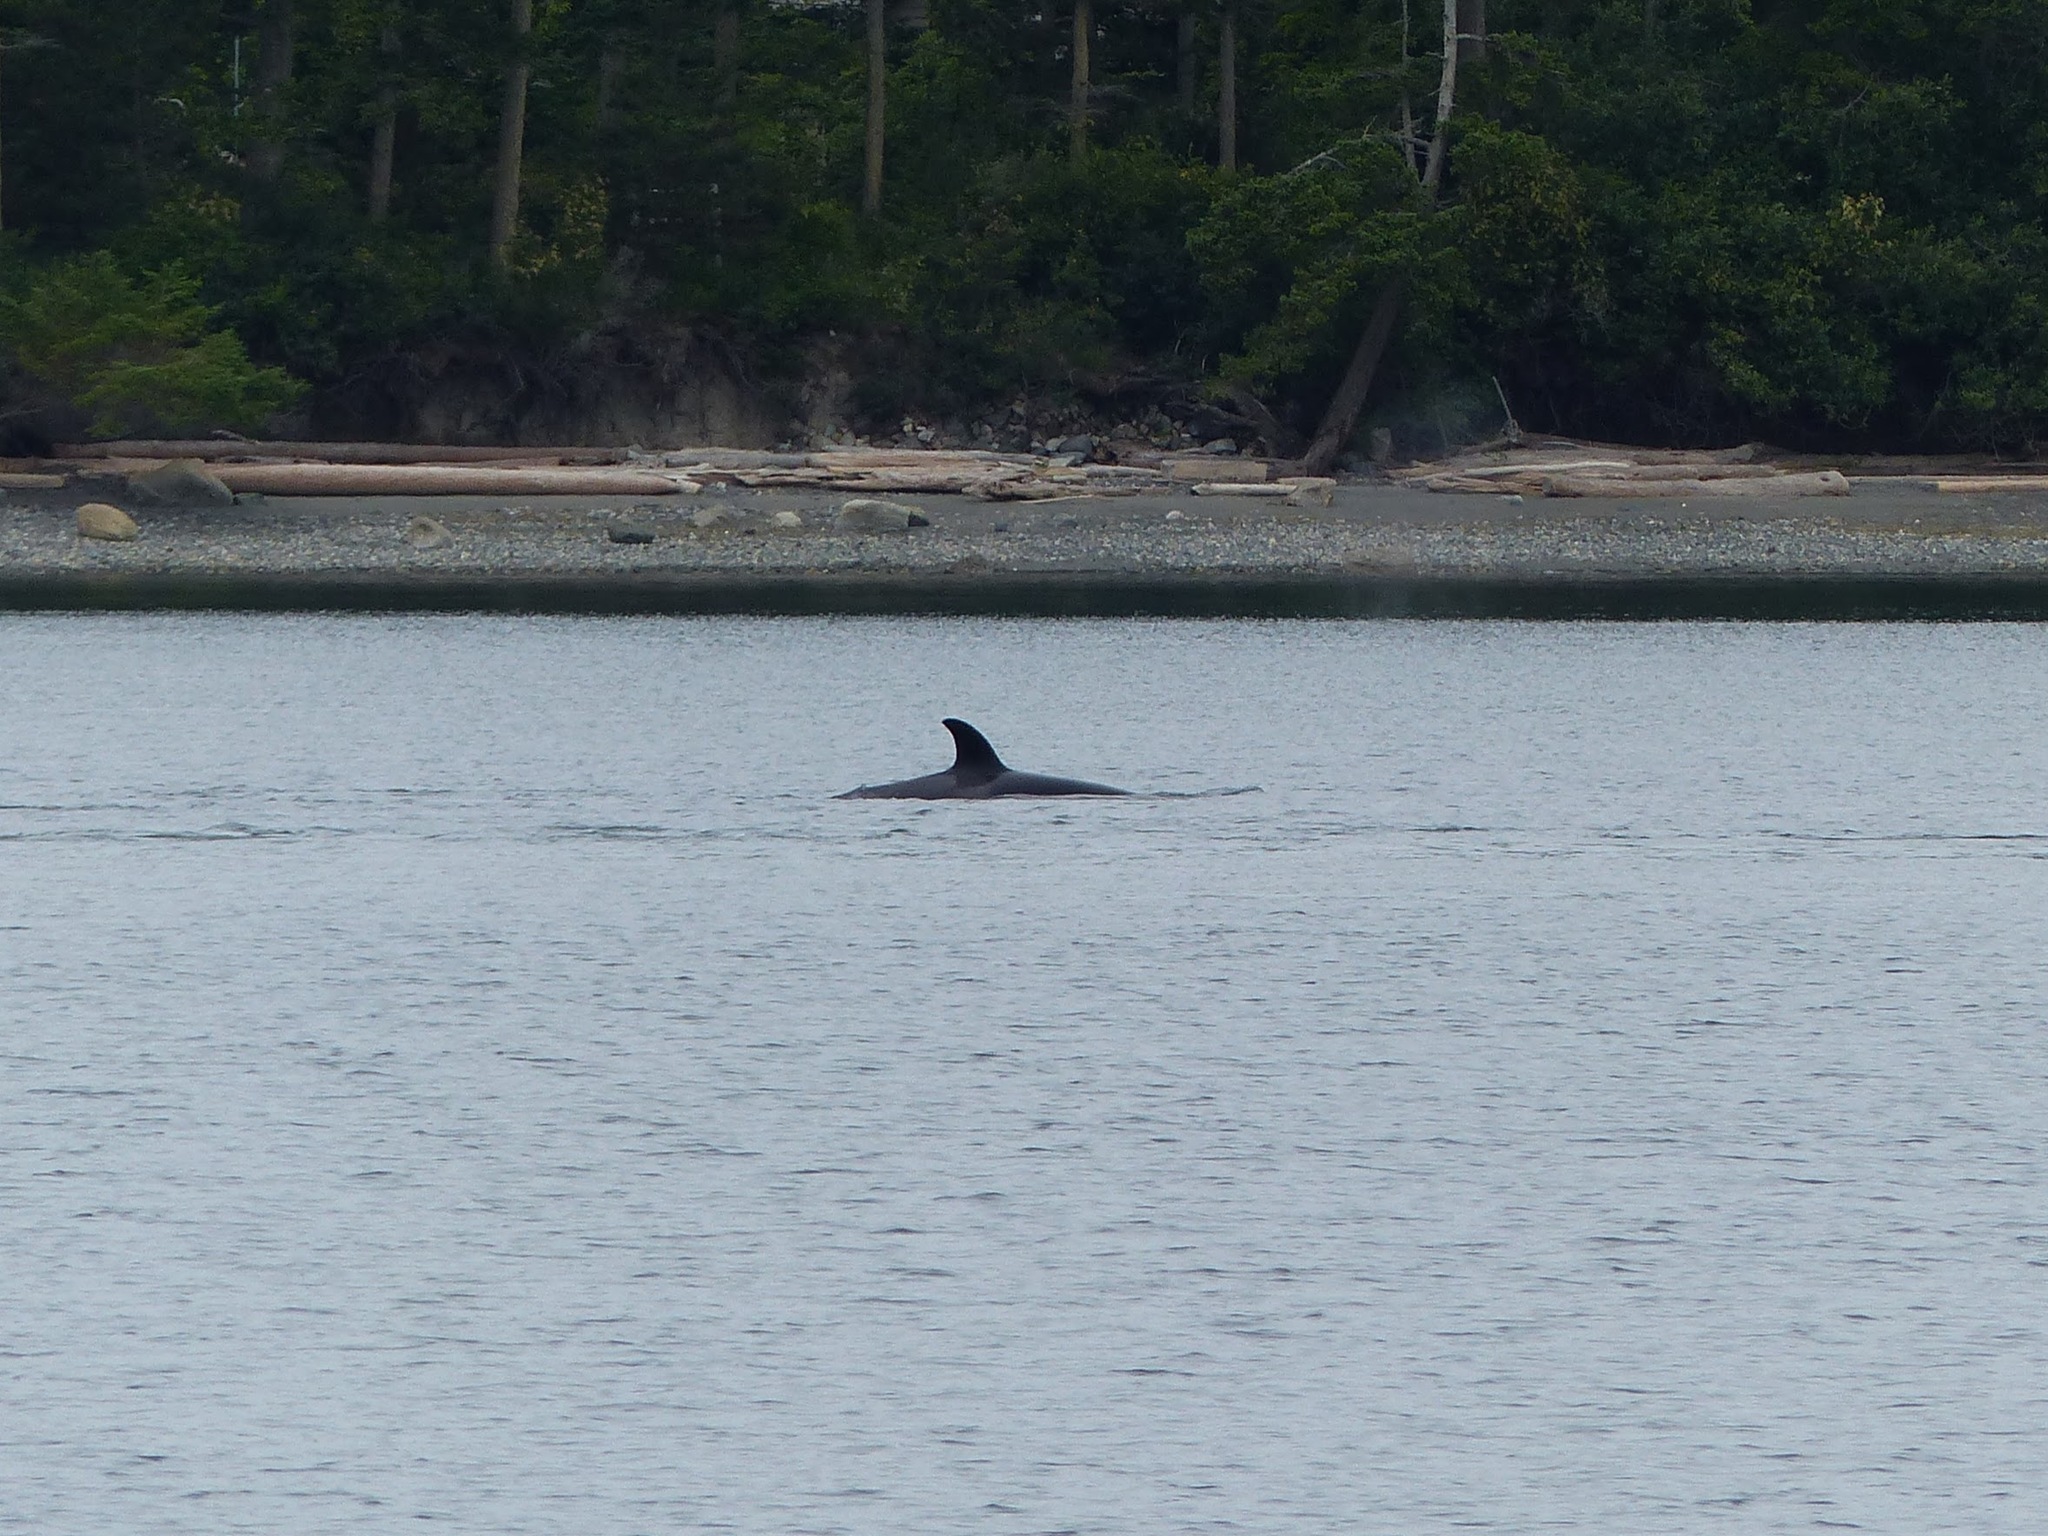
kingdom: Animalia
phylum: Chordata
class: Mammalia
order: Cetacea
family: Delphinidae
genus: Orcinus
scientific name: Orcinus orca
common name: Killer whale
